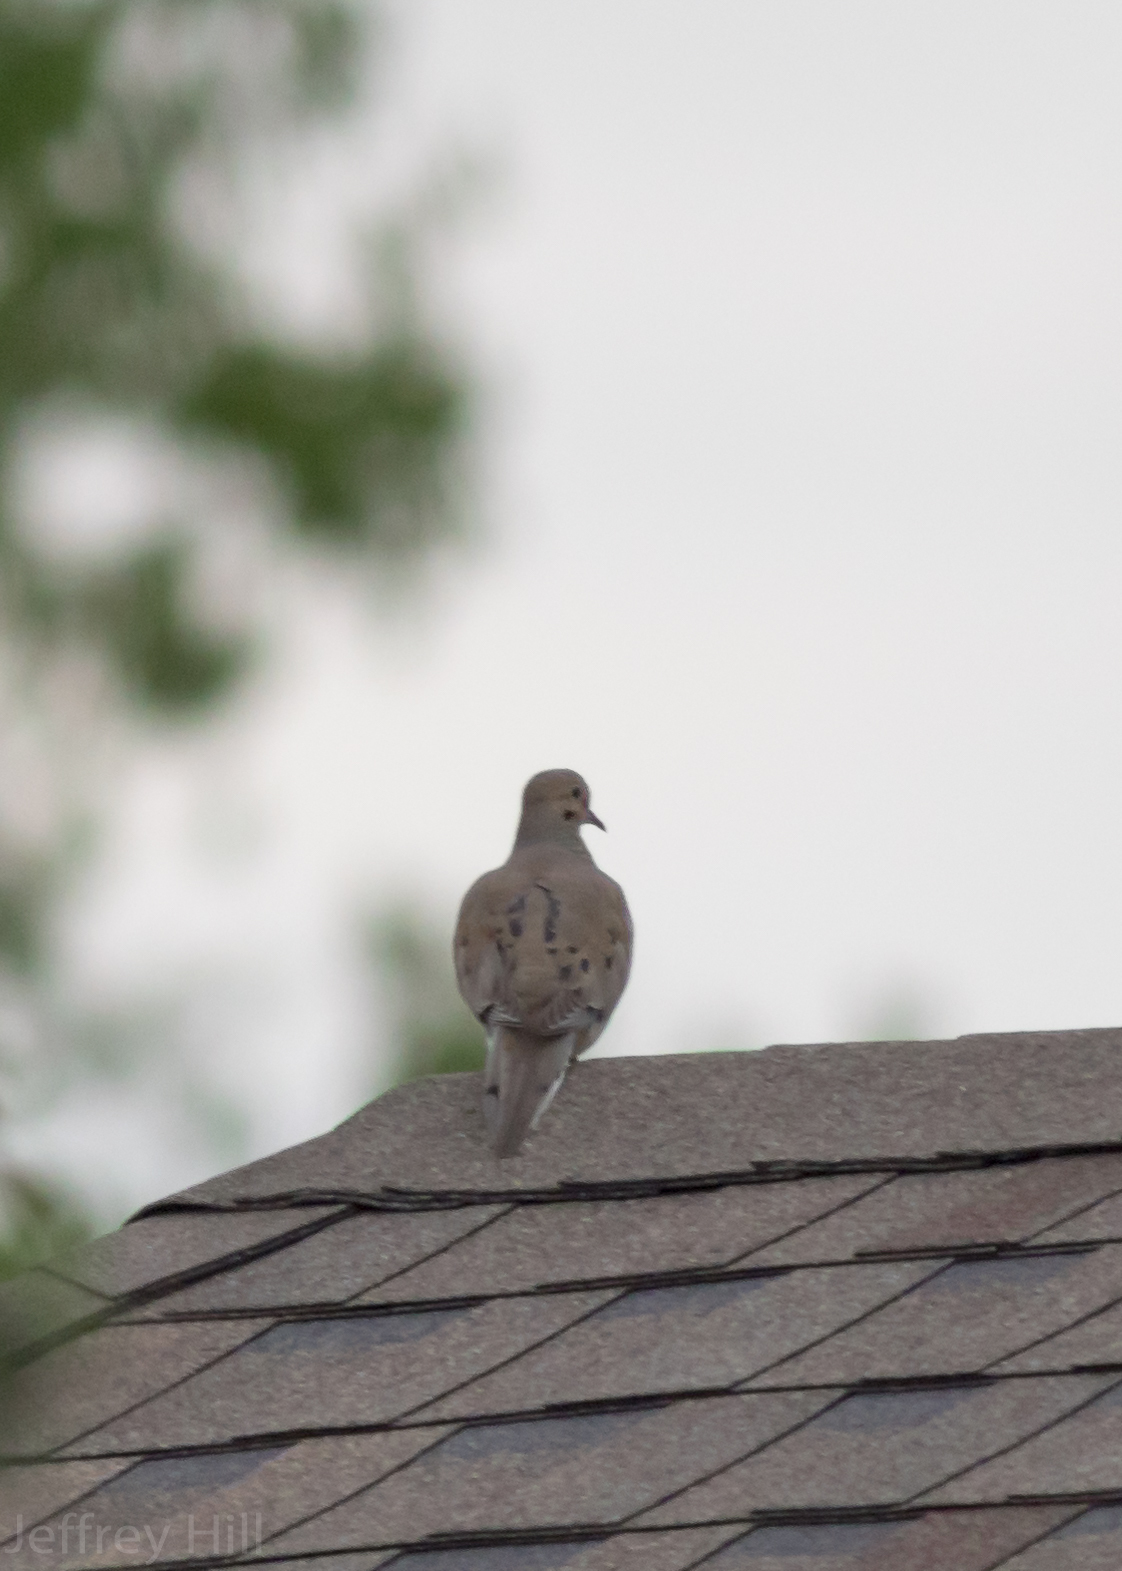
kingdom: Animalia
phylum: Chordata
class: Aves
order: Columbiformes
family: Columbidae
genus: Zenaida
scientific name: Zenaida macroura
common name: Mourning dove
